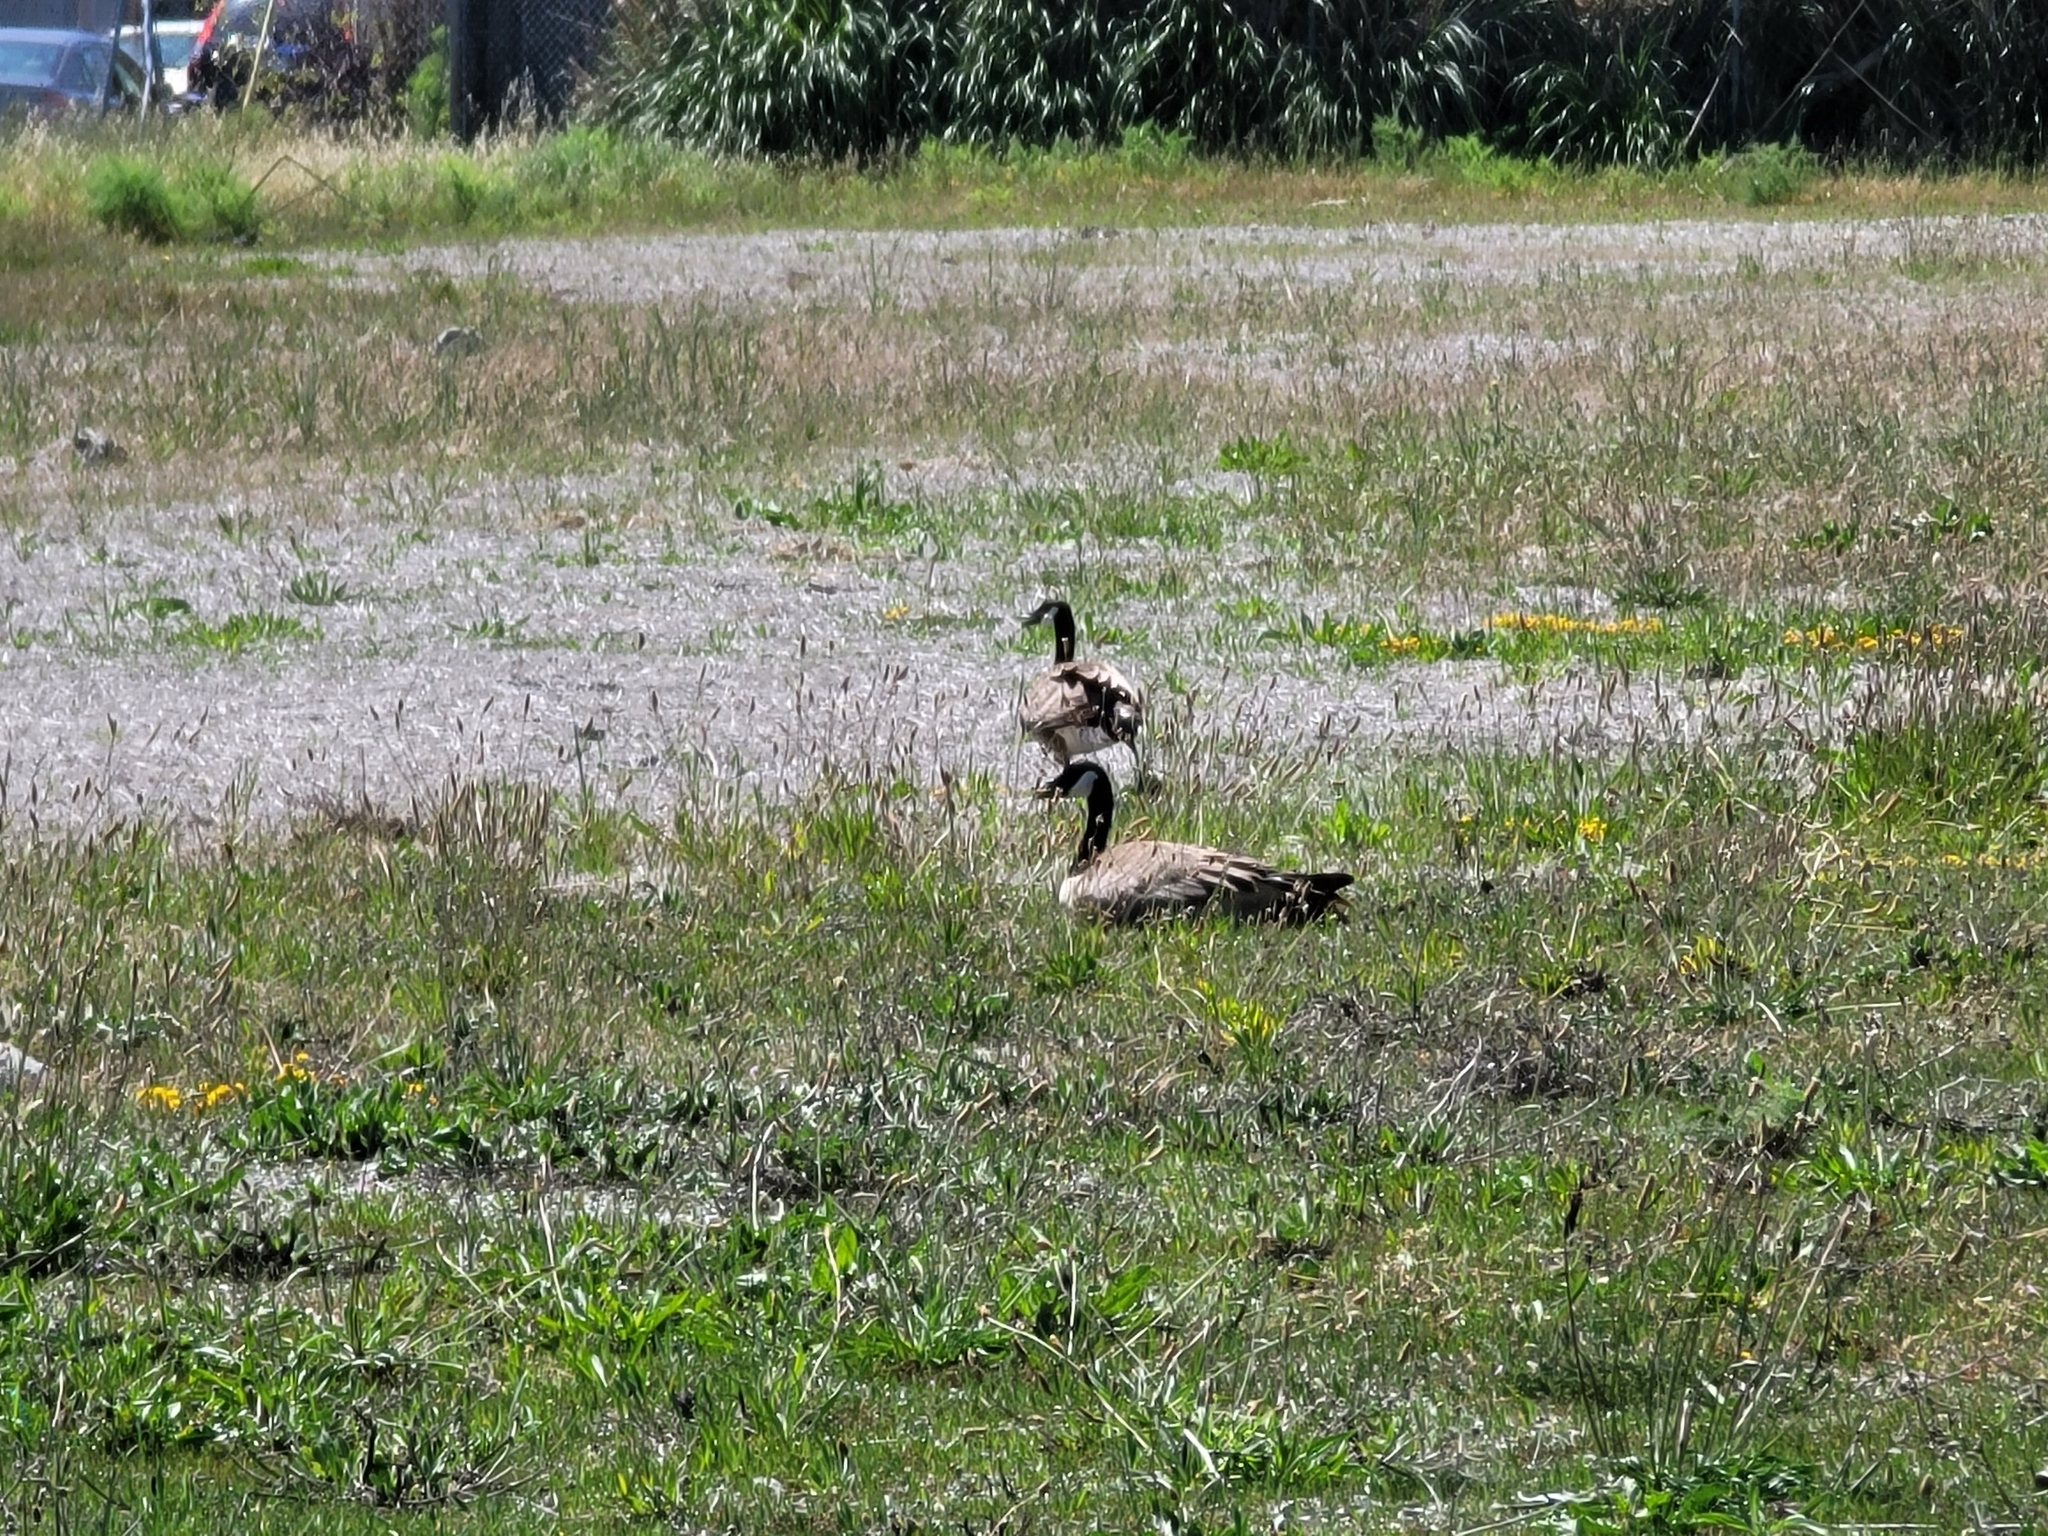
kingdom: Animalia
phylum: Chordata
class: Aves
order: Anseriformes
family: Anatidae
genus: Branta
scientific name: Branta canadensis
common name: Canada goose
